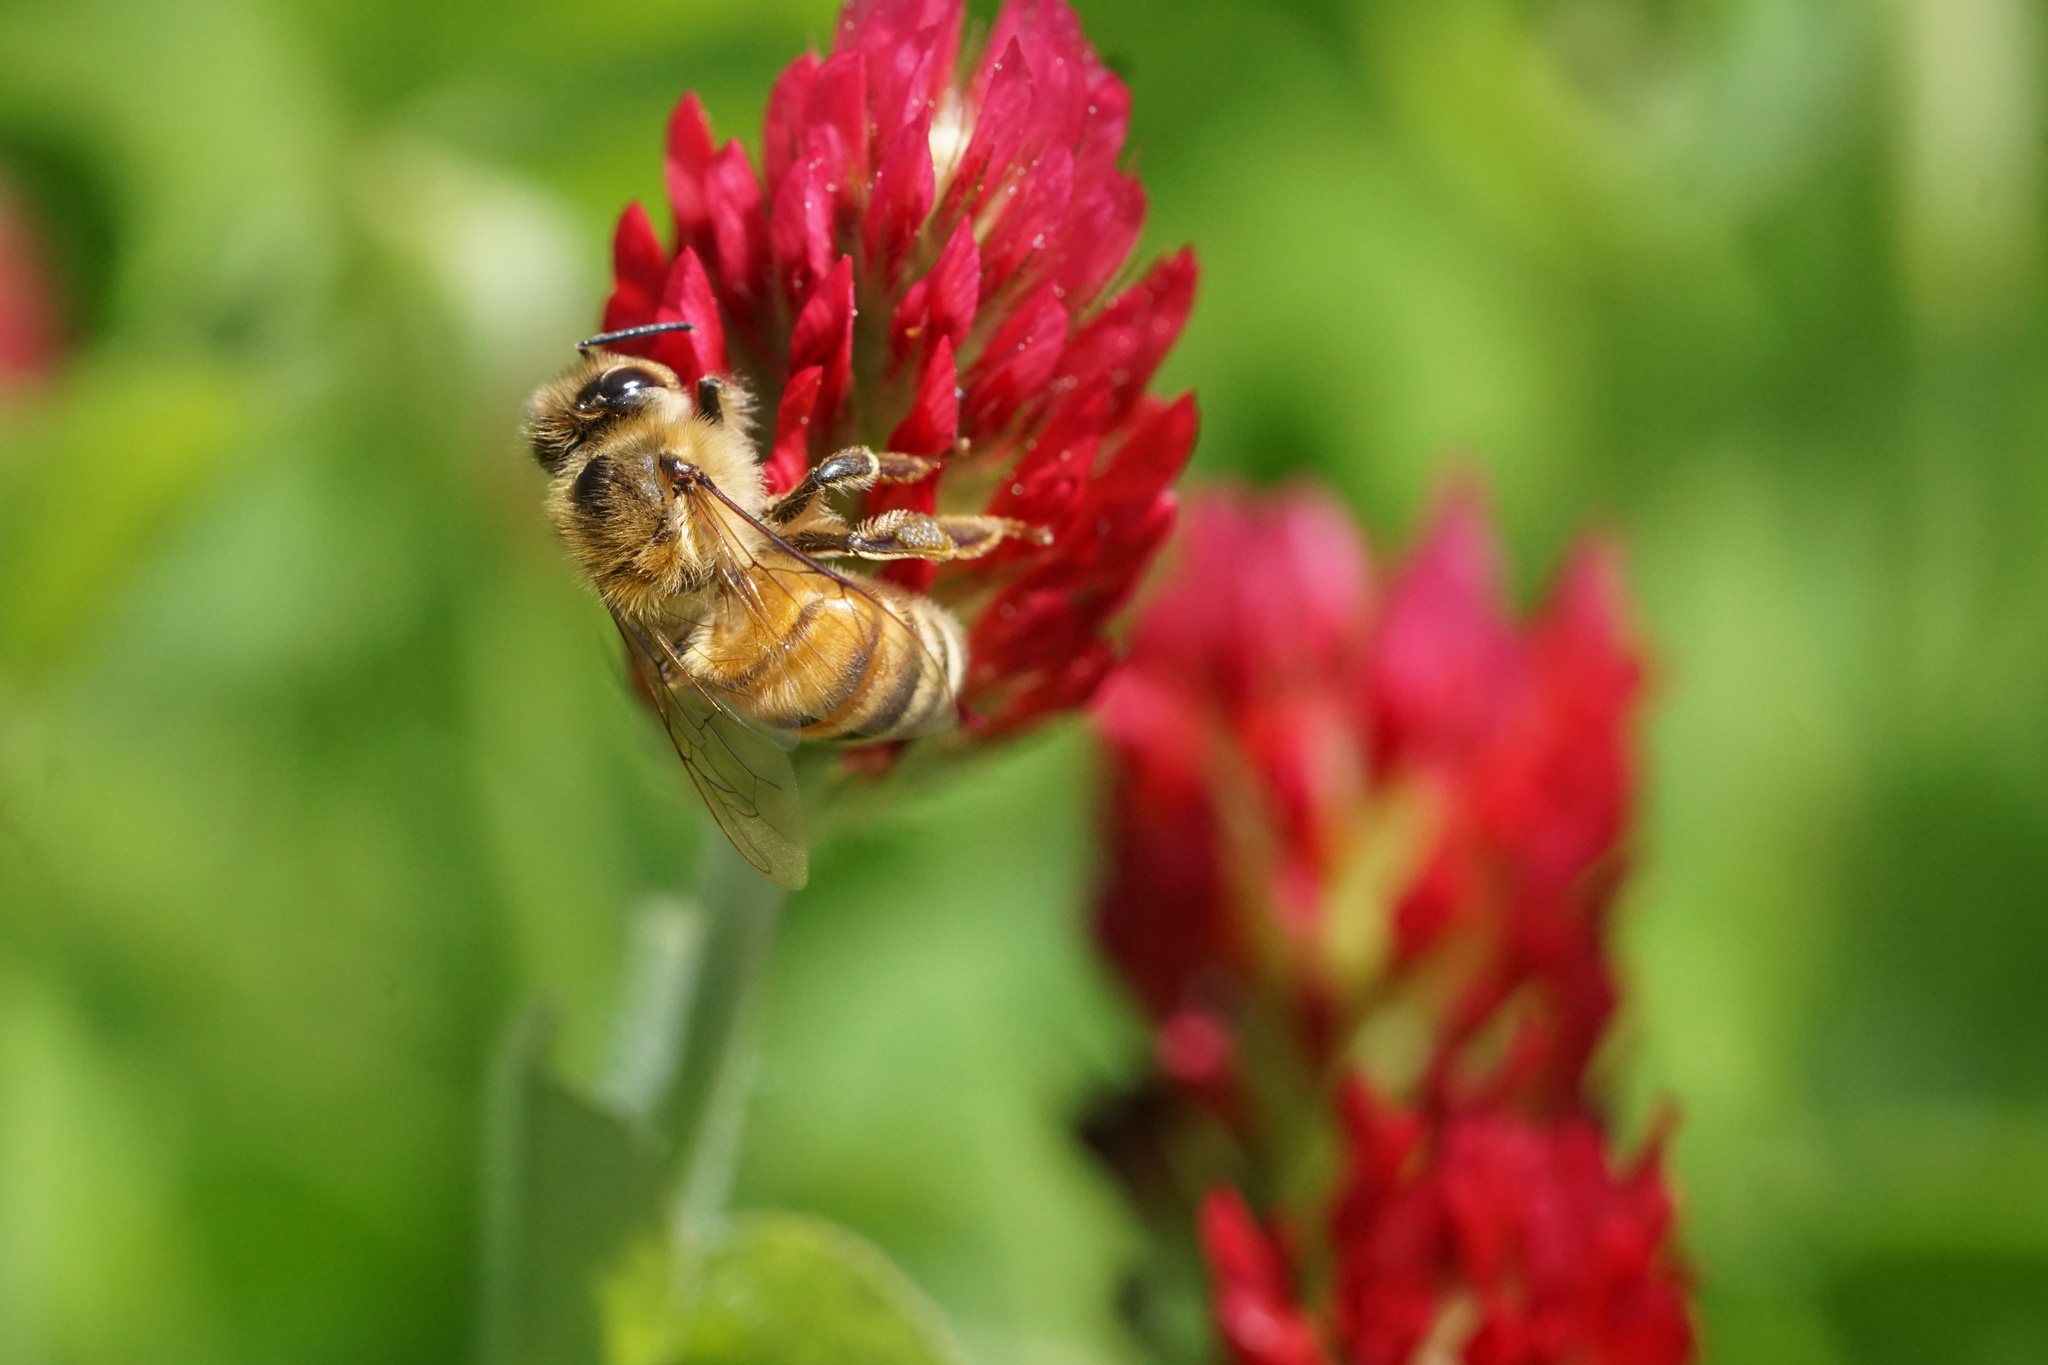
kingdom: Animalia
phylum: Arthropoda
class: Insecta
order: Hymenoptera
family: Apidae
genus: Apis
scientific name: Apis mellifera
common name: Honey bee
